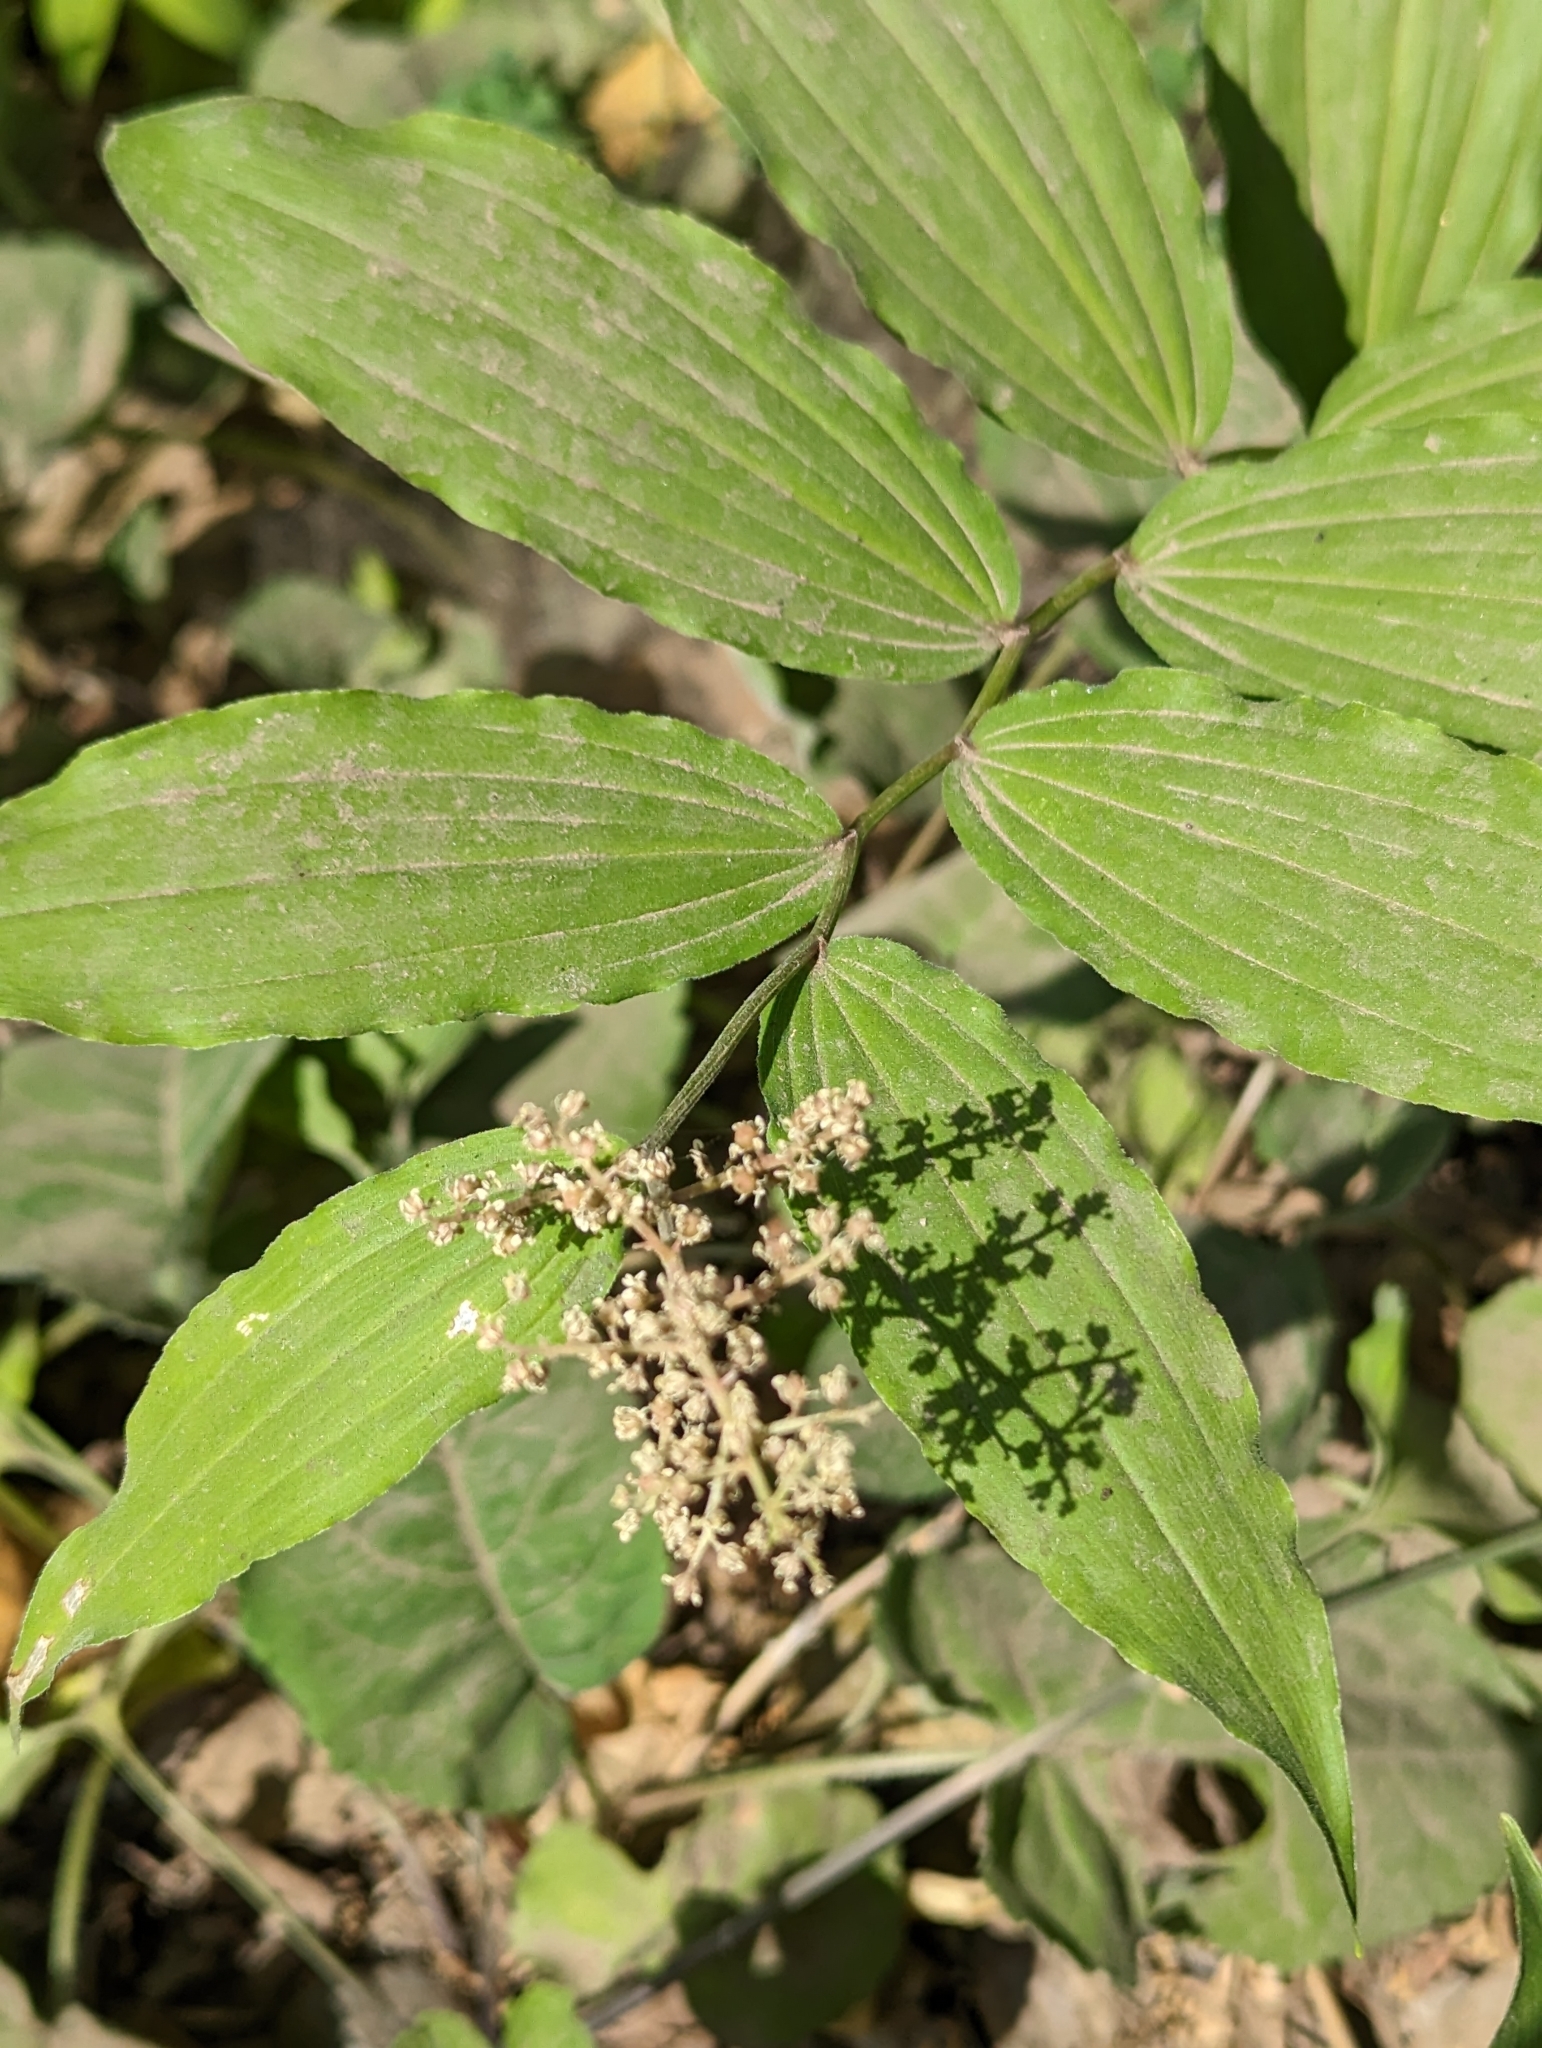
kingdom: Plantae
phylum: Tracheophyta
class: Liliopsida
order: Asparagales
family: Asparagaceae
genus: Maianthemum
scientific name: Maianthemum racemosum
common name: False spikenard
